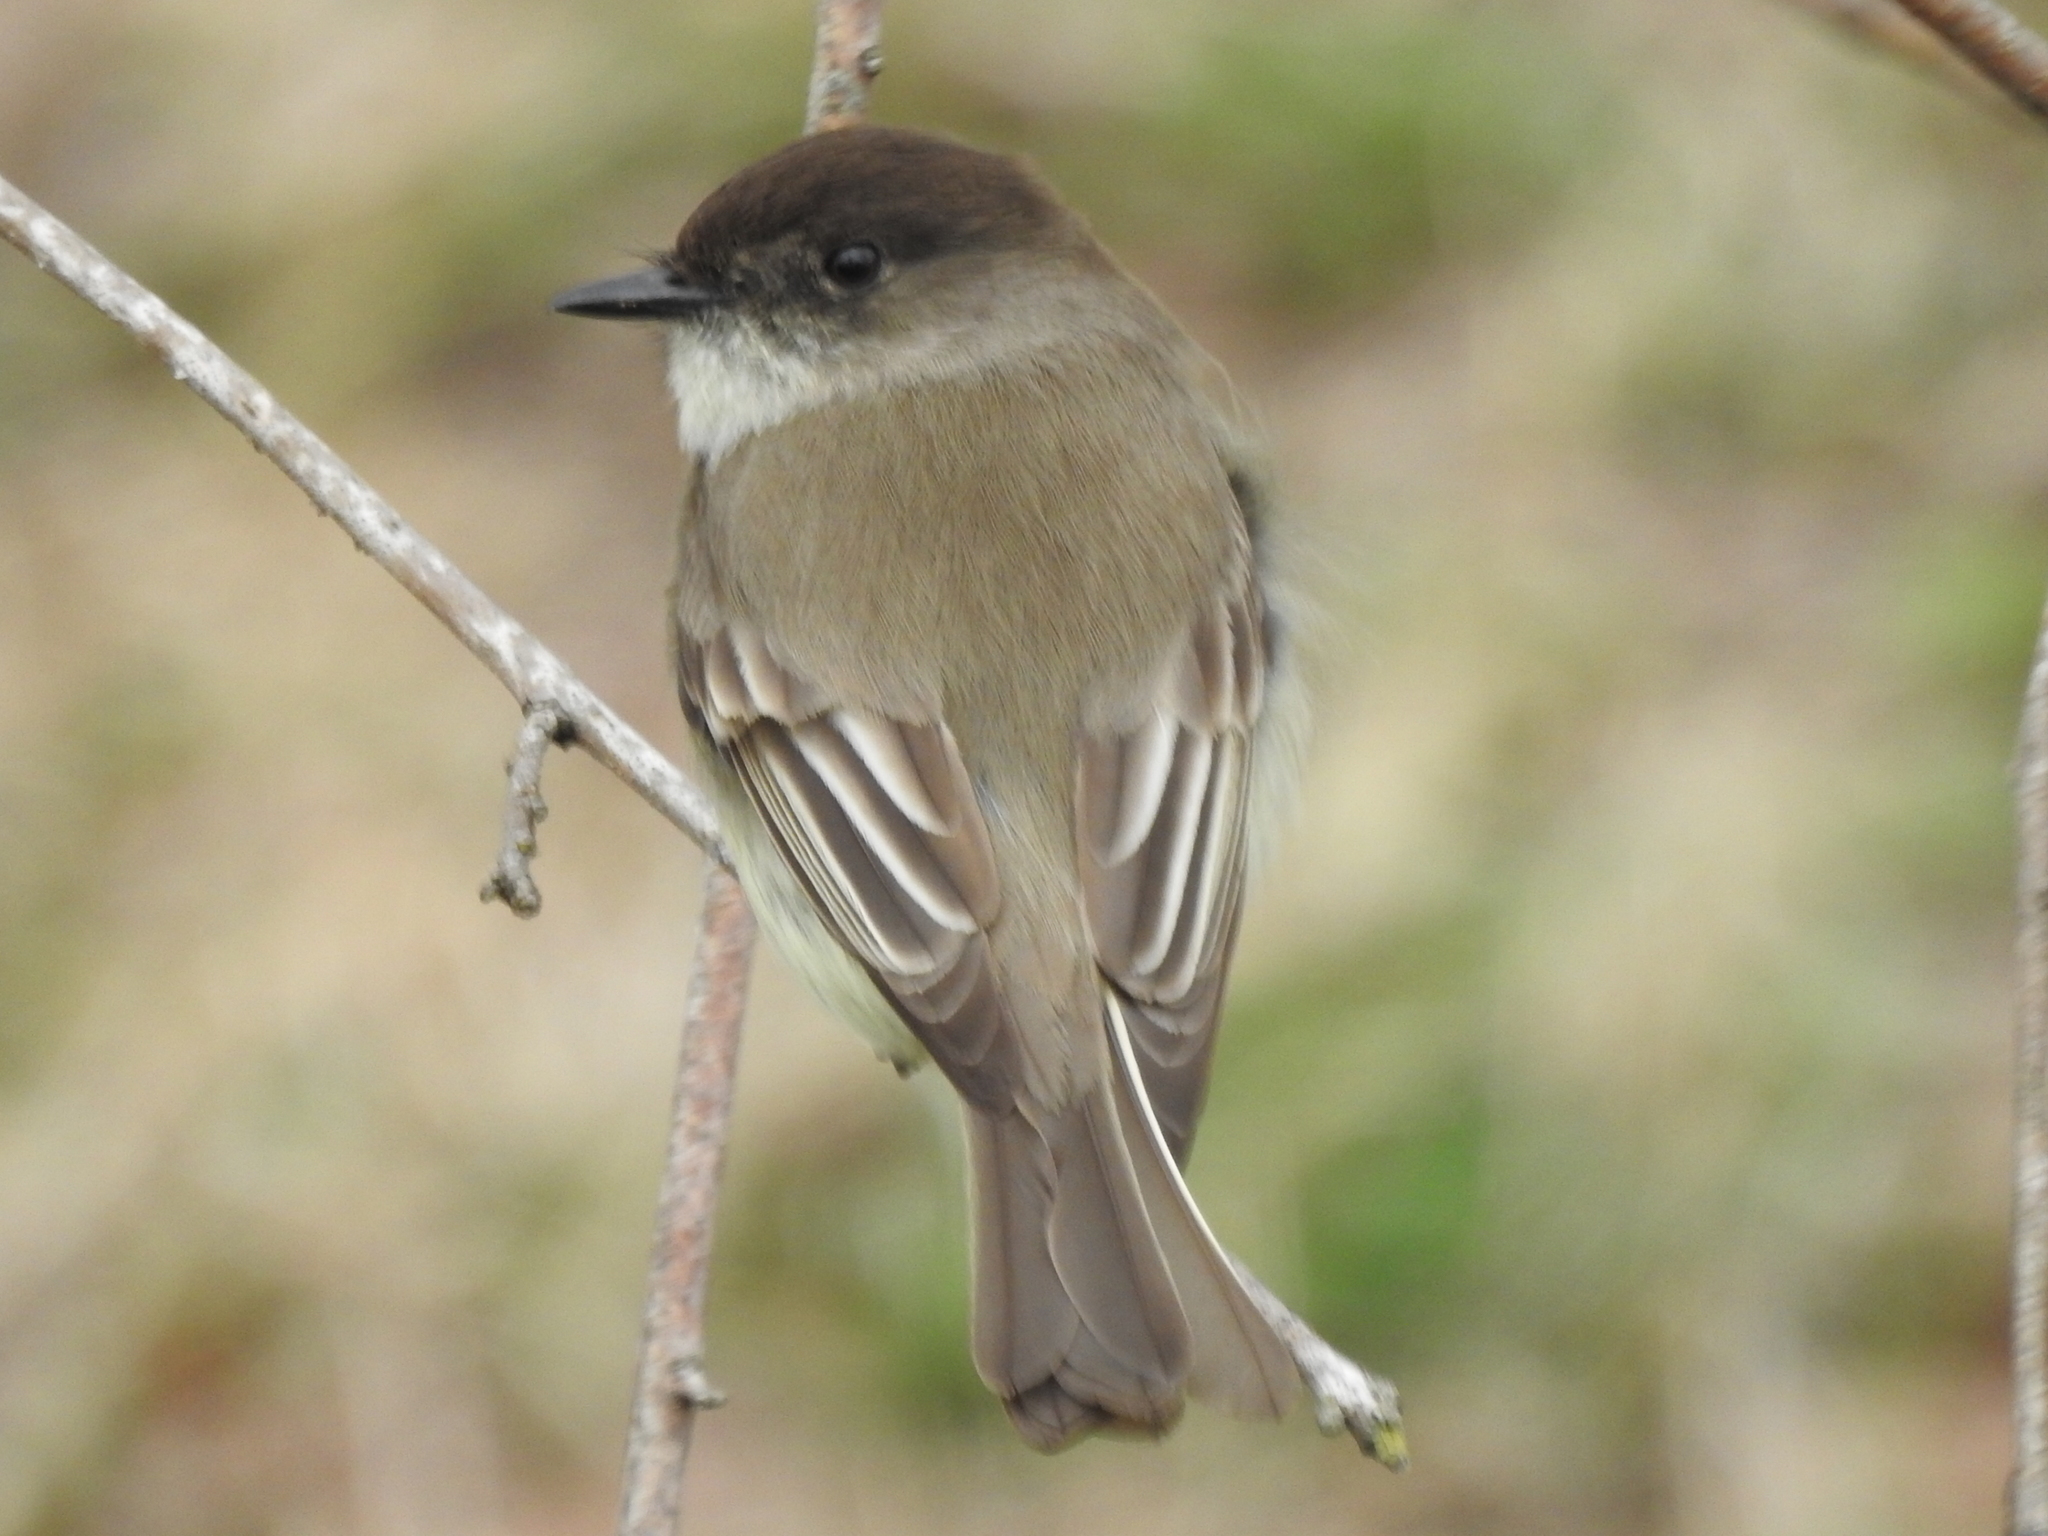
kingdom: Animalia
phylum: Chordata
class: Aves
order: Passeriformes
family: Tyrannidae
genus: Sayornis
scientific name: Sayornis phoebe
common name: Eastern phoebe
